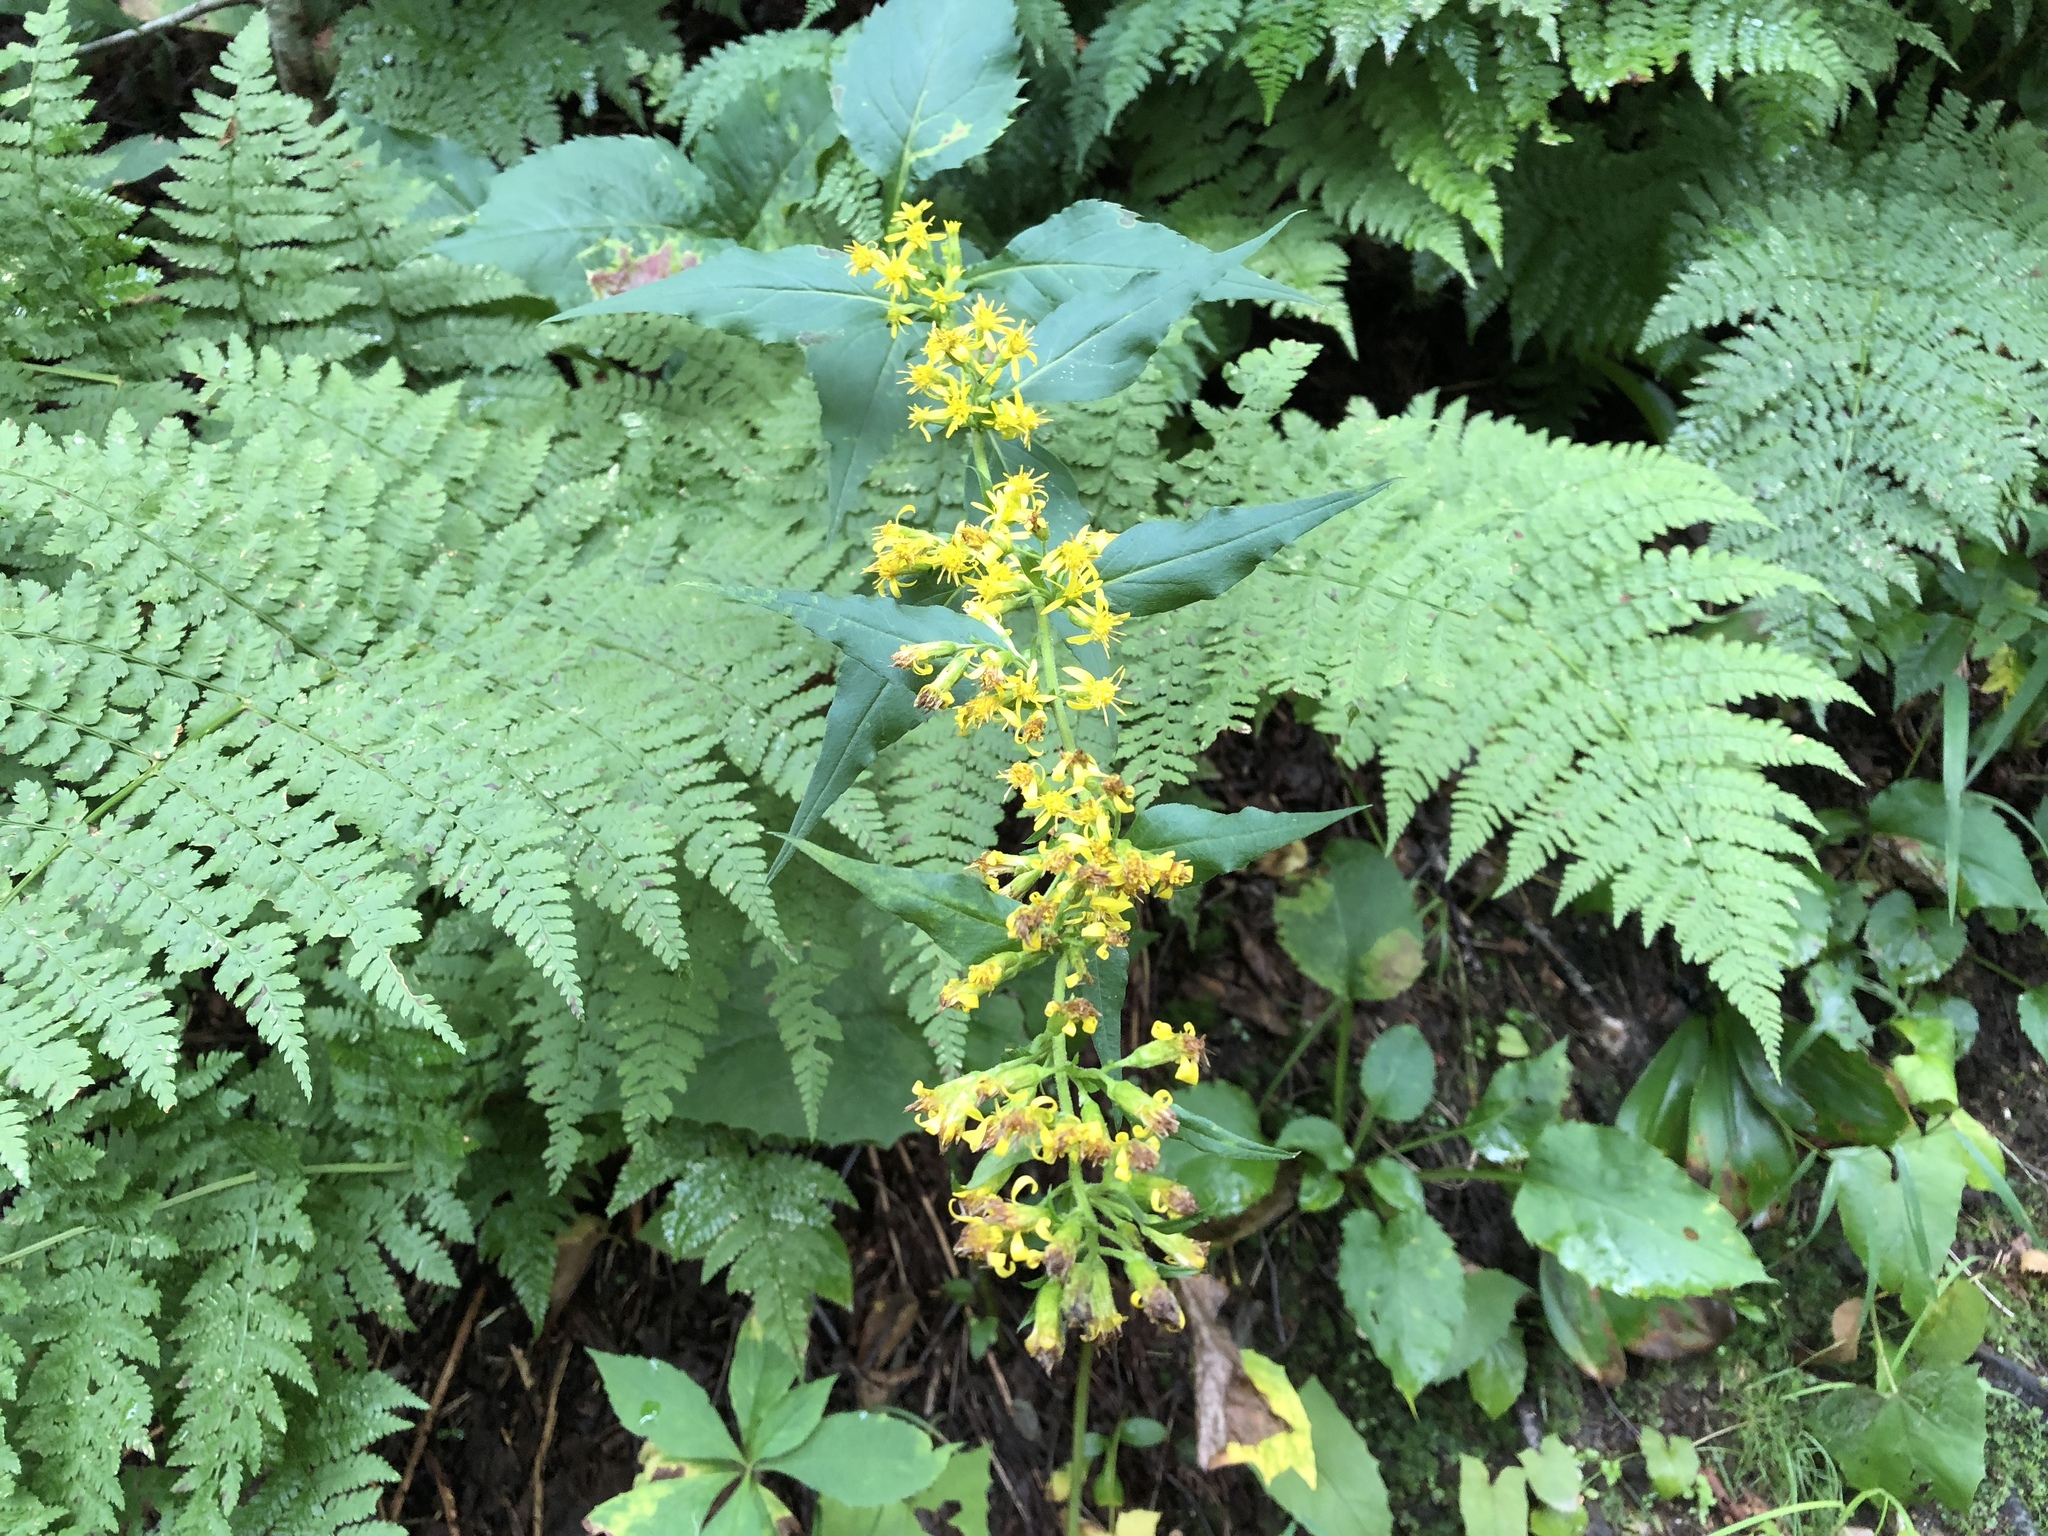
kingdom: Plantae
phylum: Tracheophyta
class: Magnoliopsida
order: Asterales
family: Asteraceae
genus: Solidago
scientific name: Solidago flexicaulis
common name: Zig-zag goldenrod
